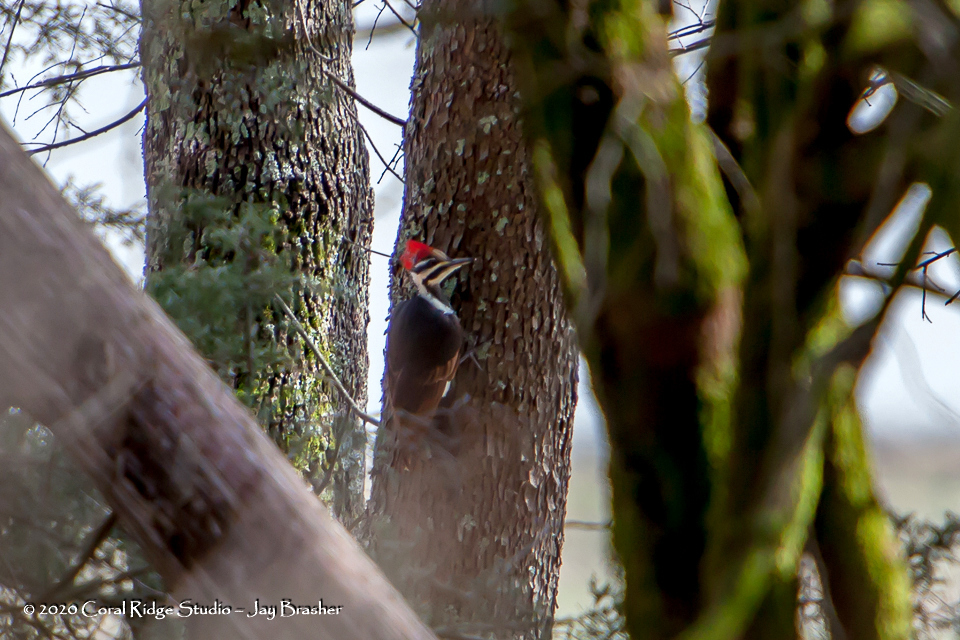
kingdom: Animalia
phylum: Chordata
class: Aves
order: Piciformes
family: Picidae
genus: Dryocopus
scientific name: Dryocopus pileatus
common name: Pileated woodpecker
